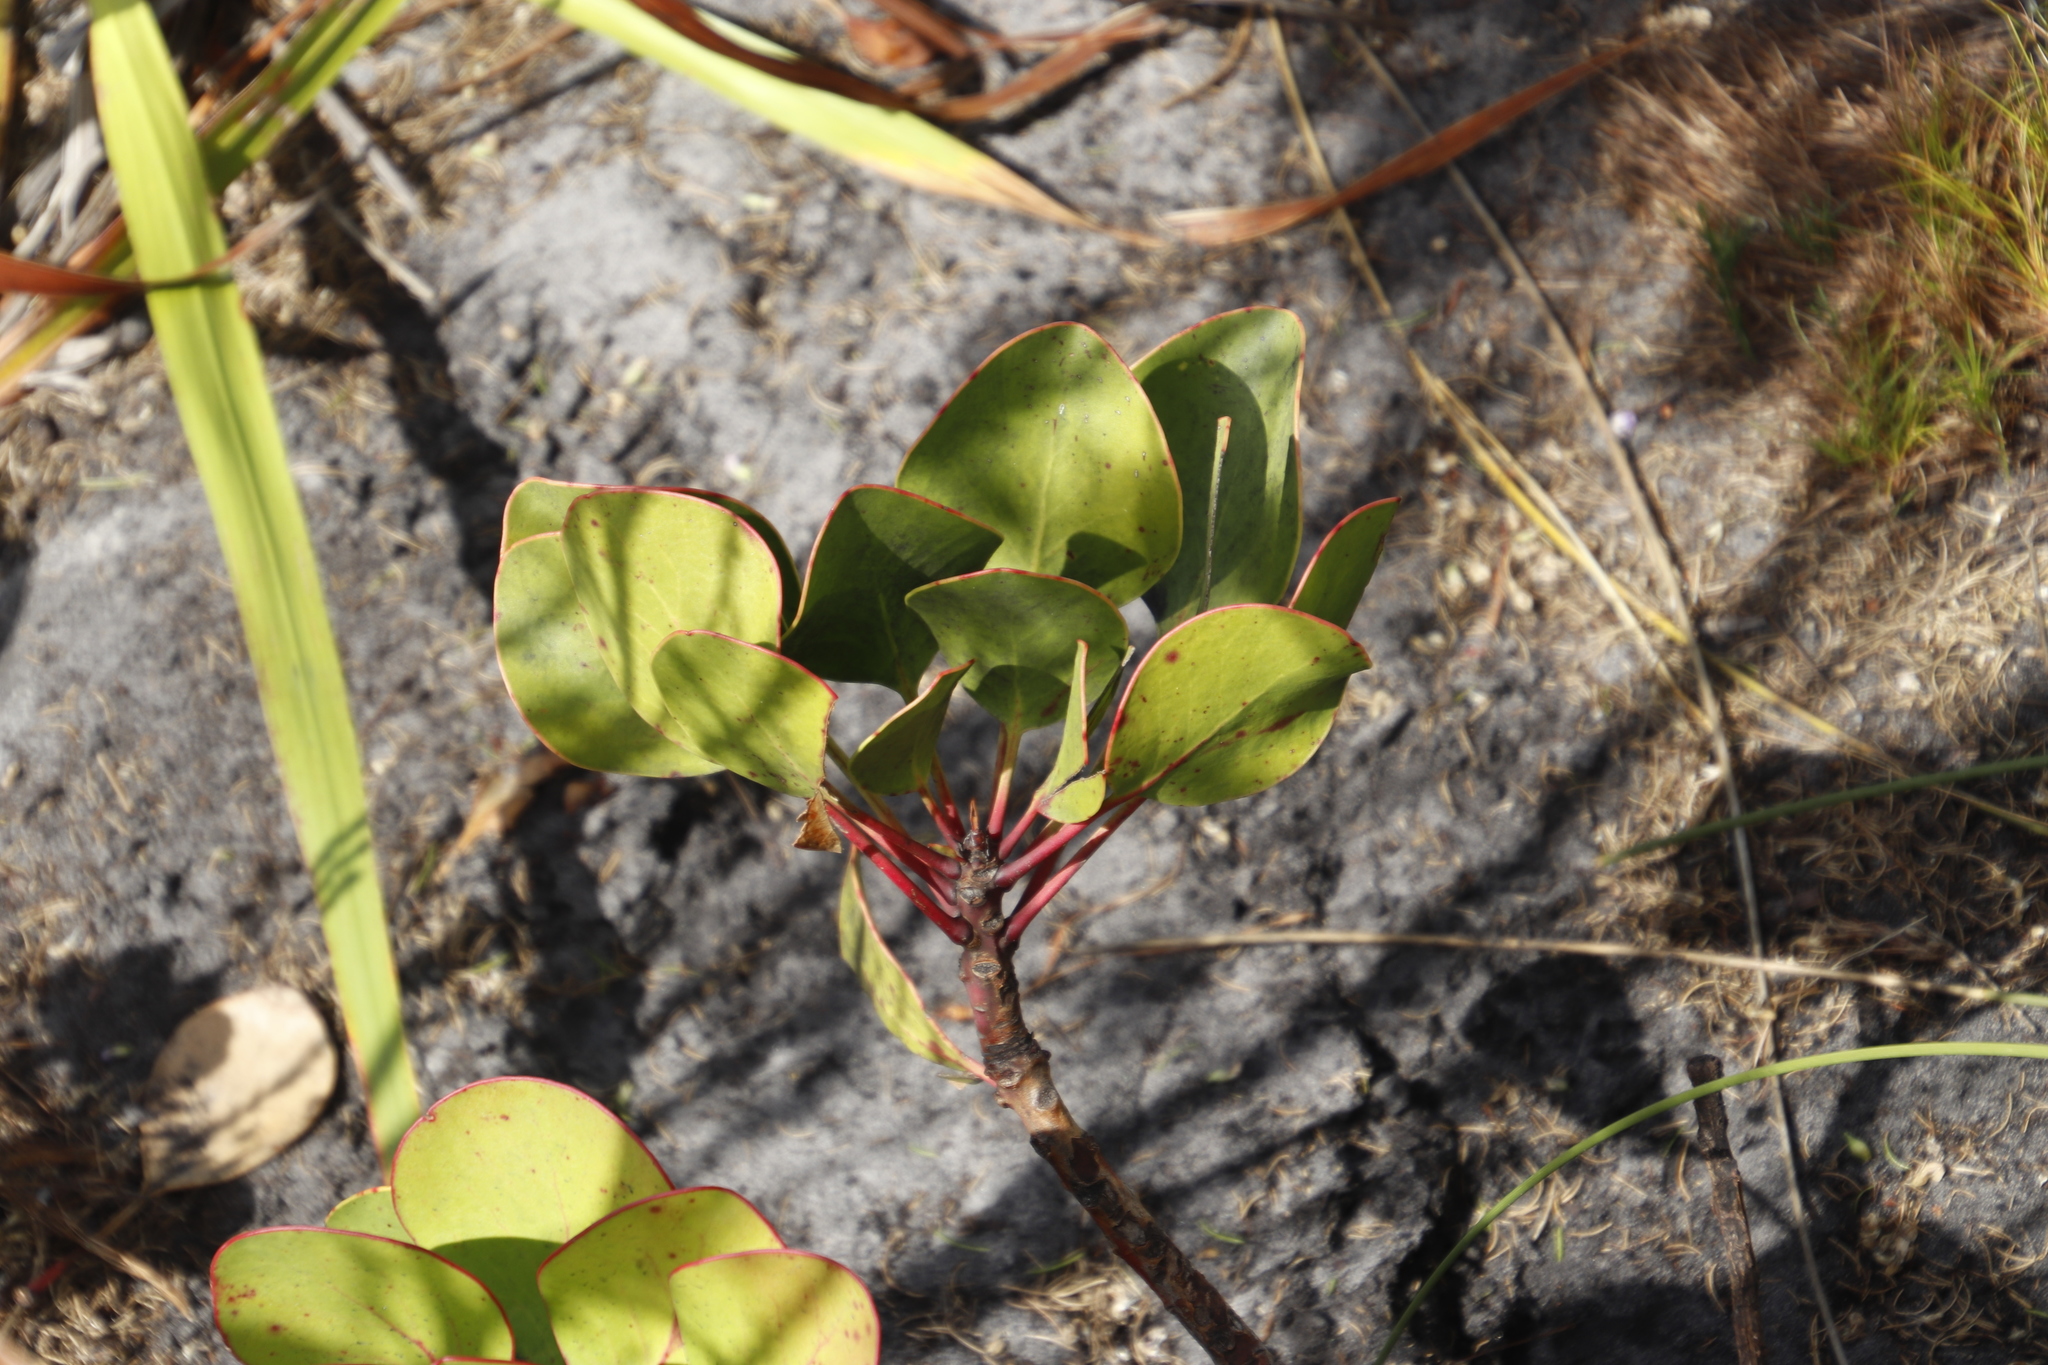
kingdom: Plantae
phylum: Tracheophyta
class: Magnoliopsida
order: Proteales
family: Proteaceae
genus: Protea
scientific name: Protea cynaroides
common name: King protea
